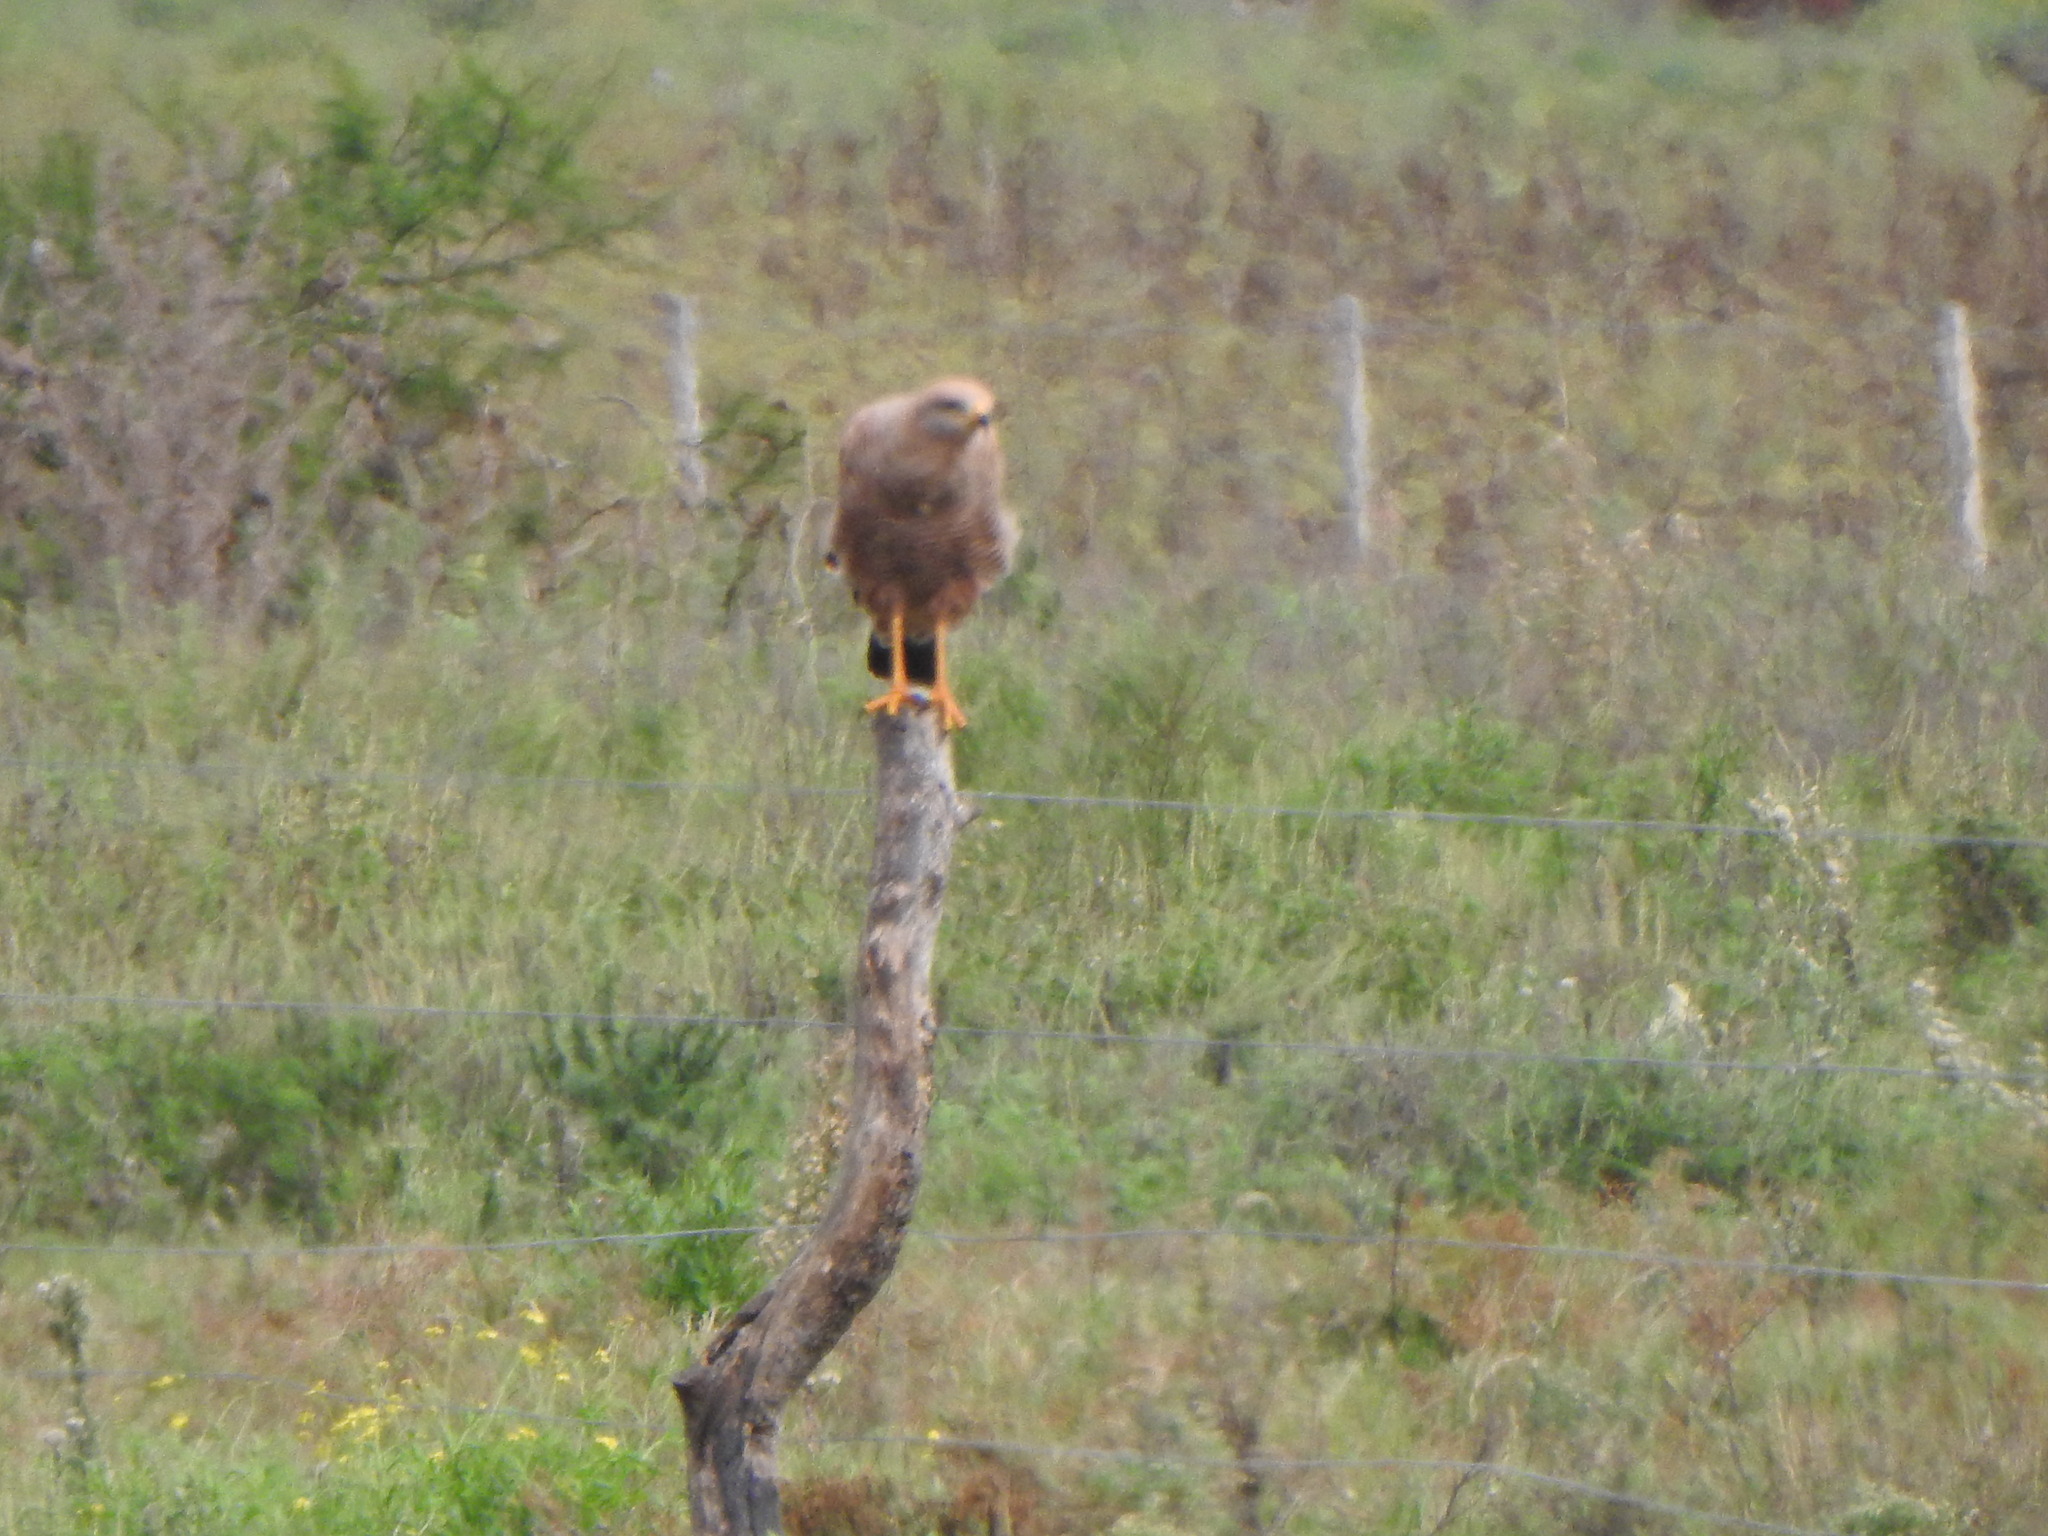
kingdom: Animalia
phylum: Chordata
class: Aves
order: Accipitriformes
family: Accipitridae
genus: Buteogallus
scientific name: Buteogallus meridionalis
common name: Savanna hawk
